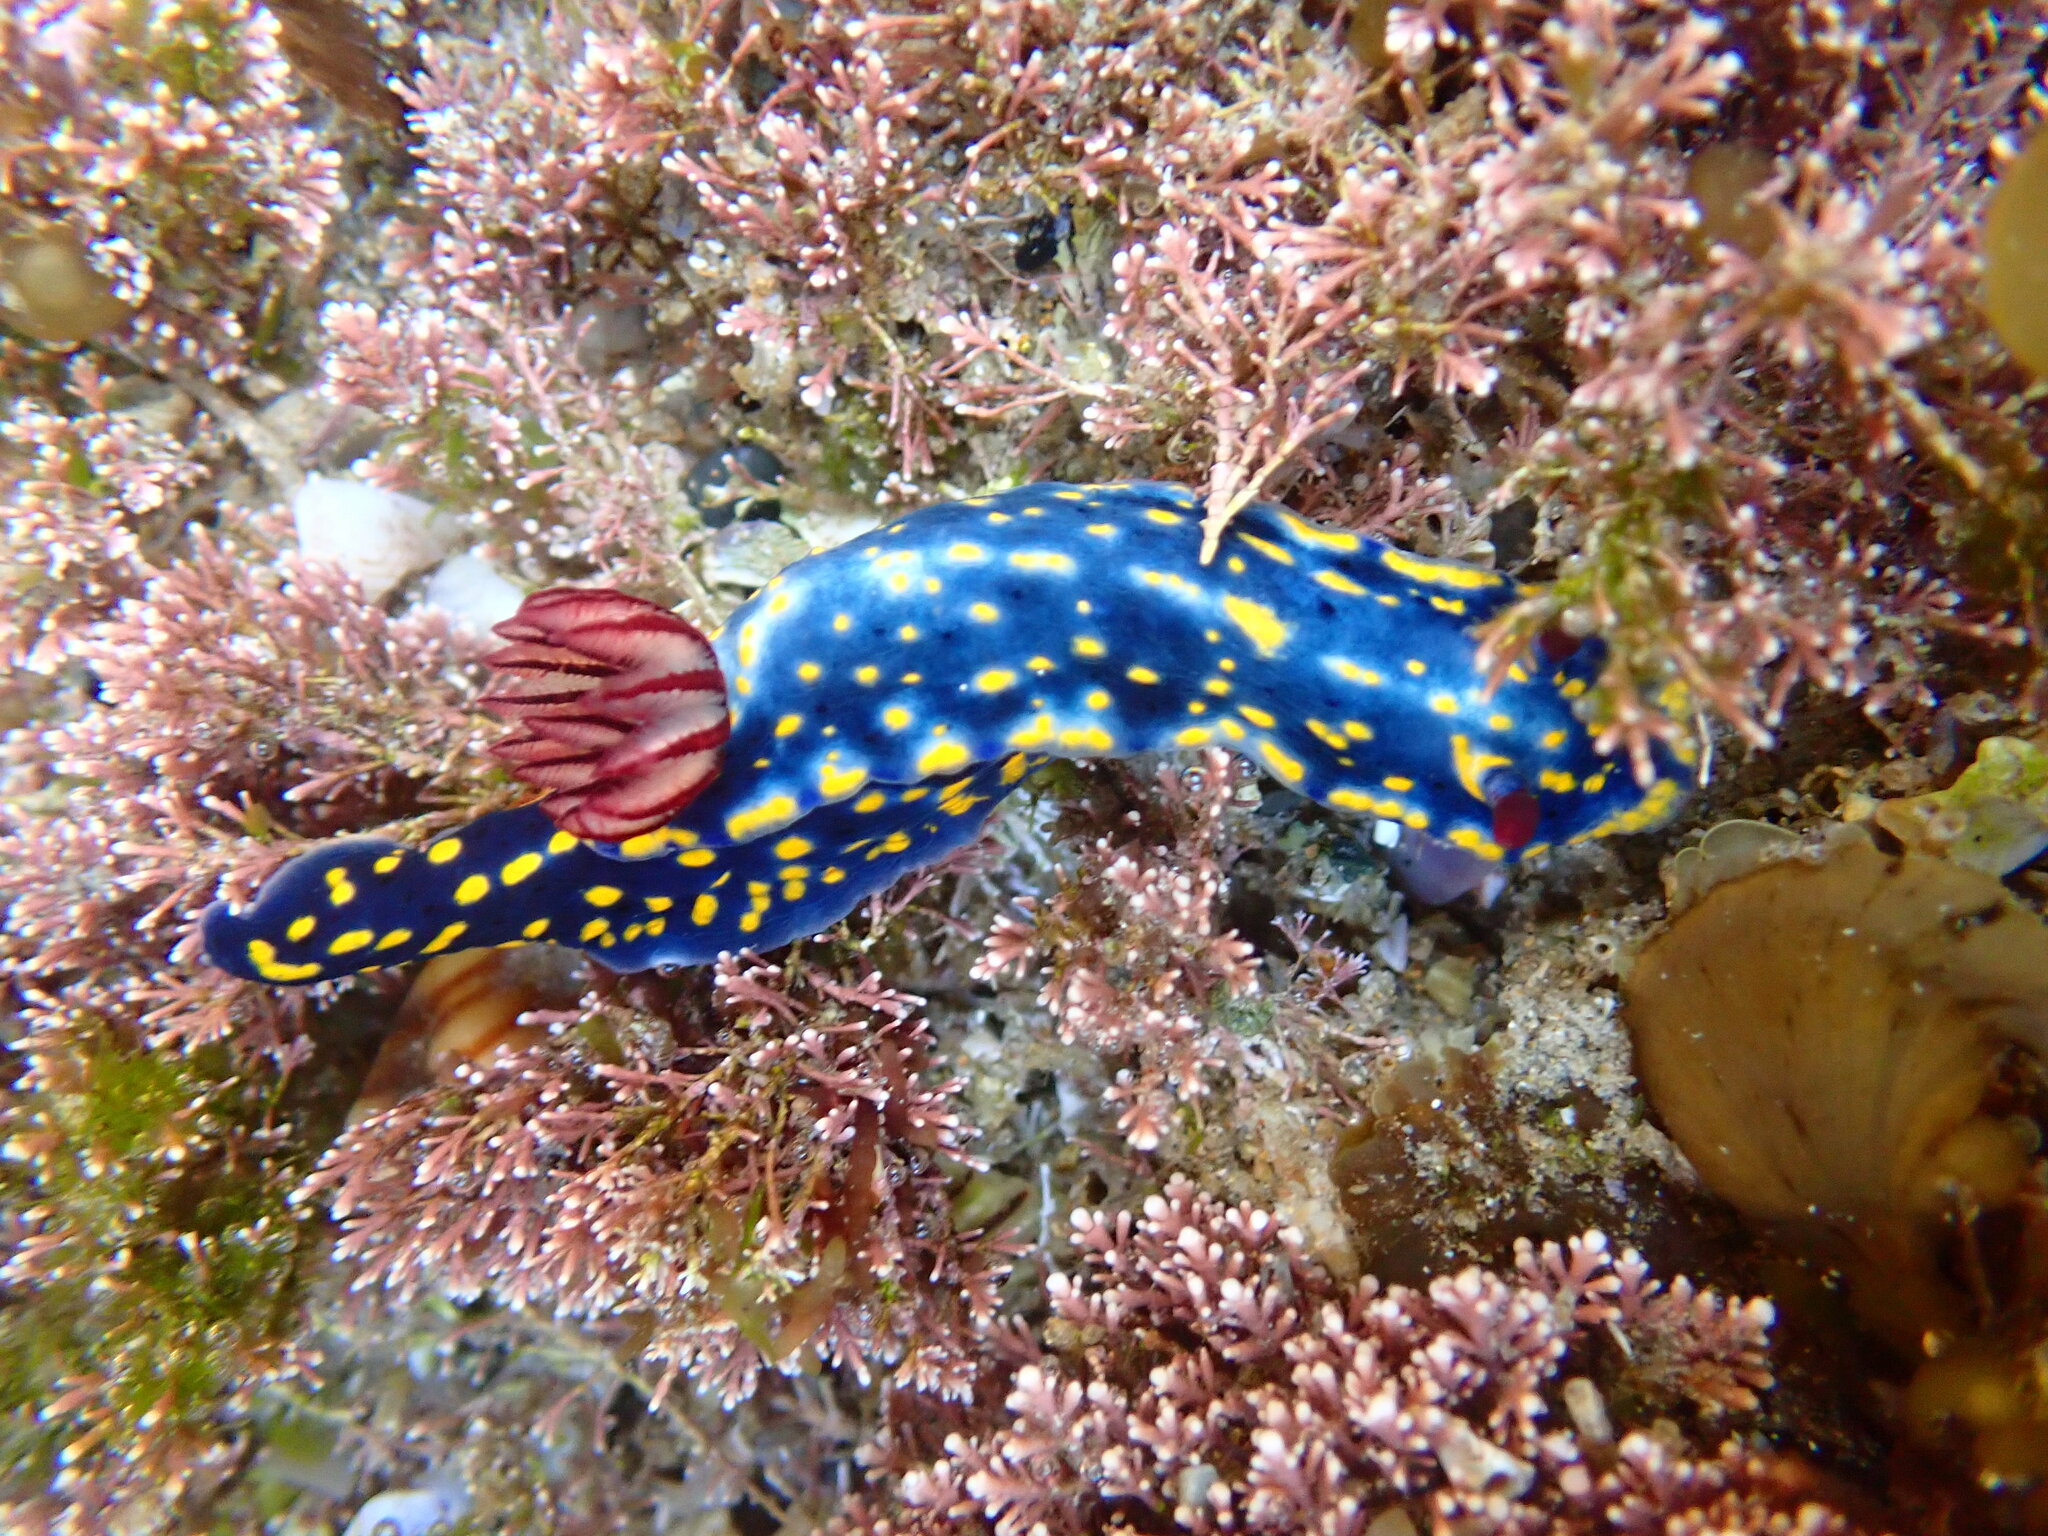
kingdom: Animalia
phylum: Mollusca
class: Gastropoda
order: Nudibranchia
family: Chromodorididae
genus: Hypselodoris
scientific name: Hypselodoris obscura
